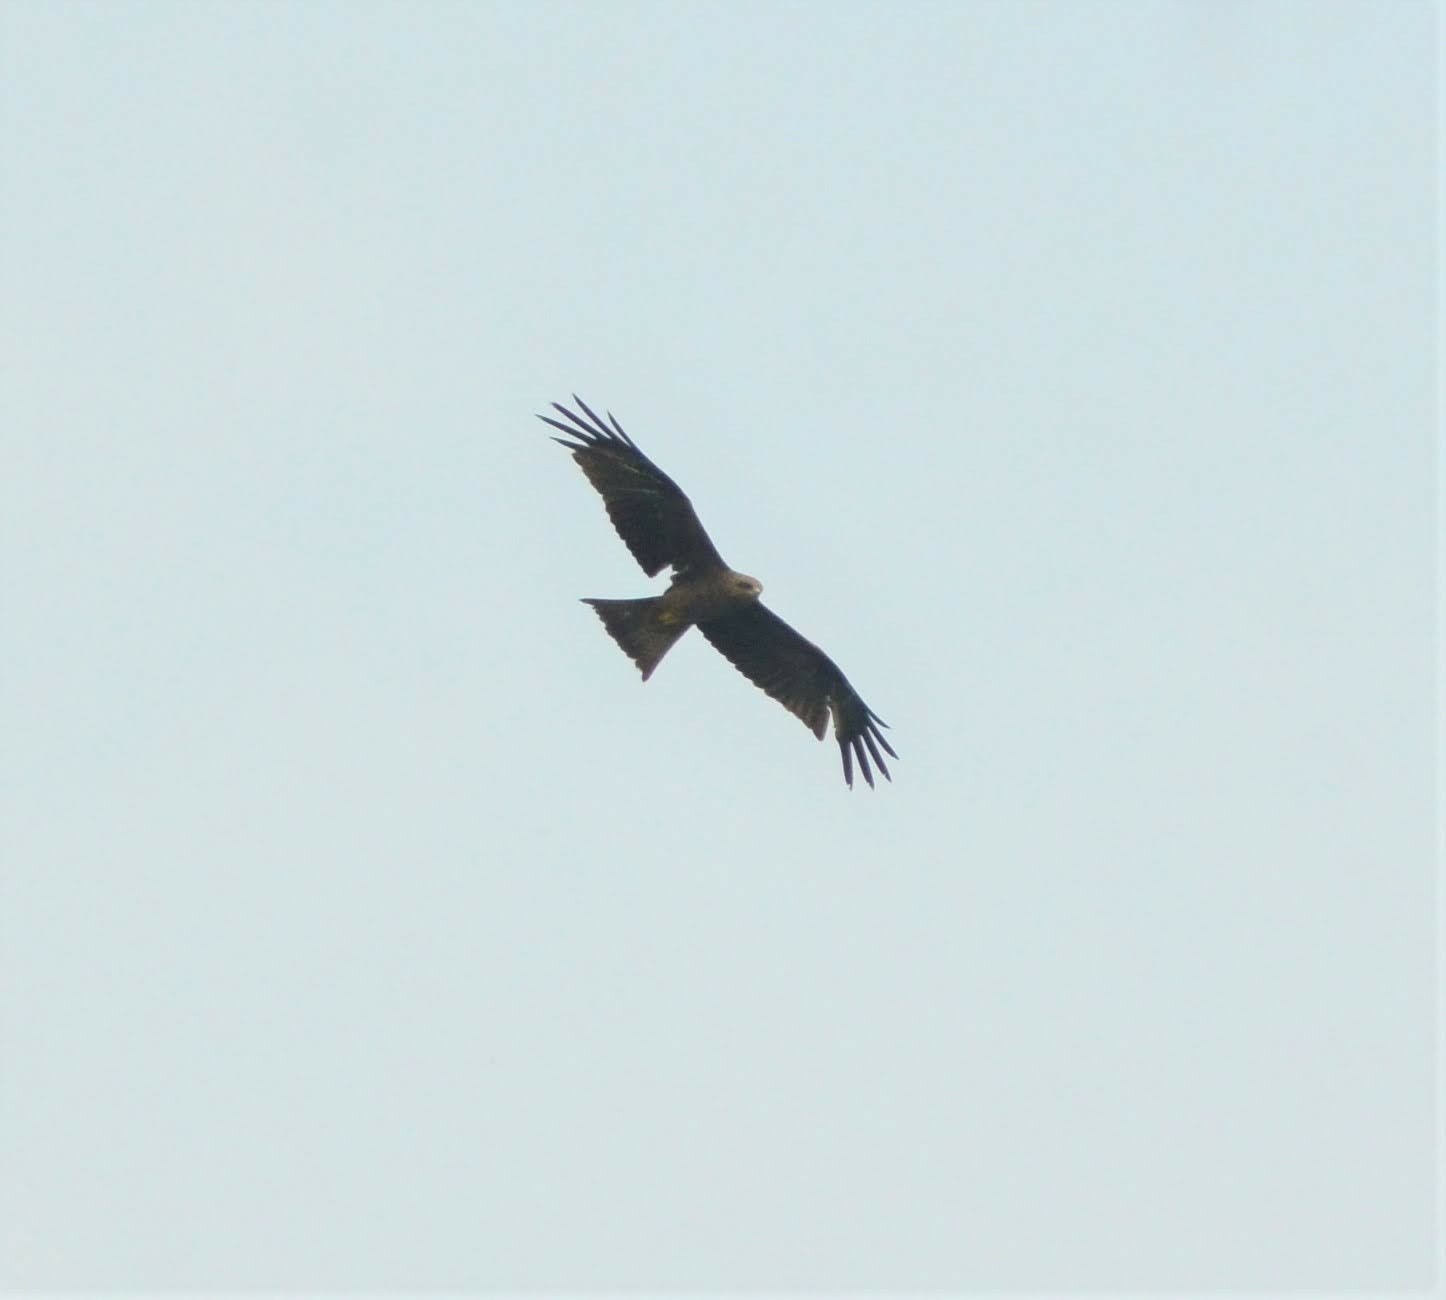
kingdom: Animalia
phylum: Chordata
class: Aves
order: Accipitriformes
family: Accipitridae
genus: Milvus
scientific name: Milvus migrans
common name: Black kite
